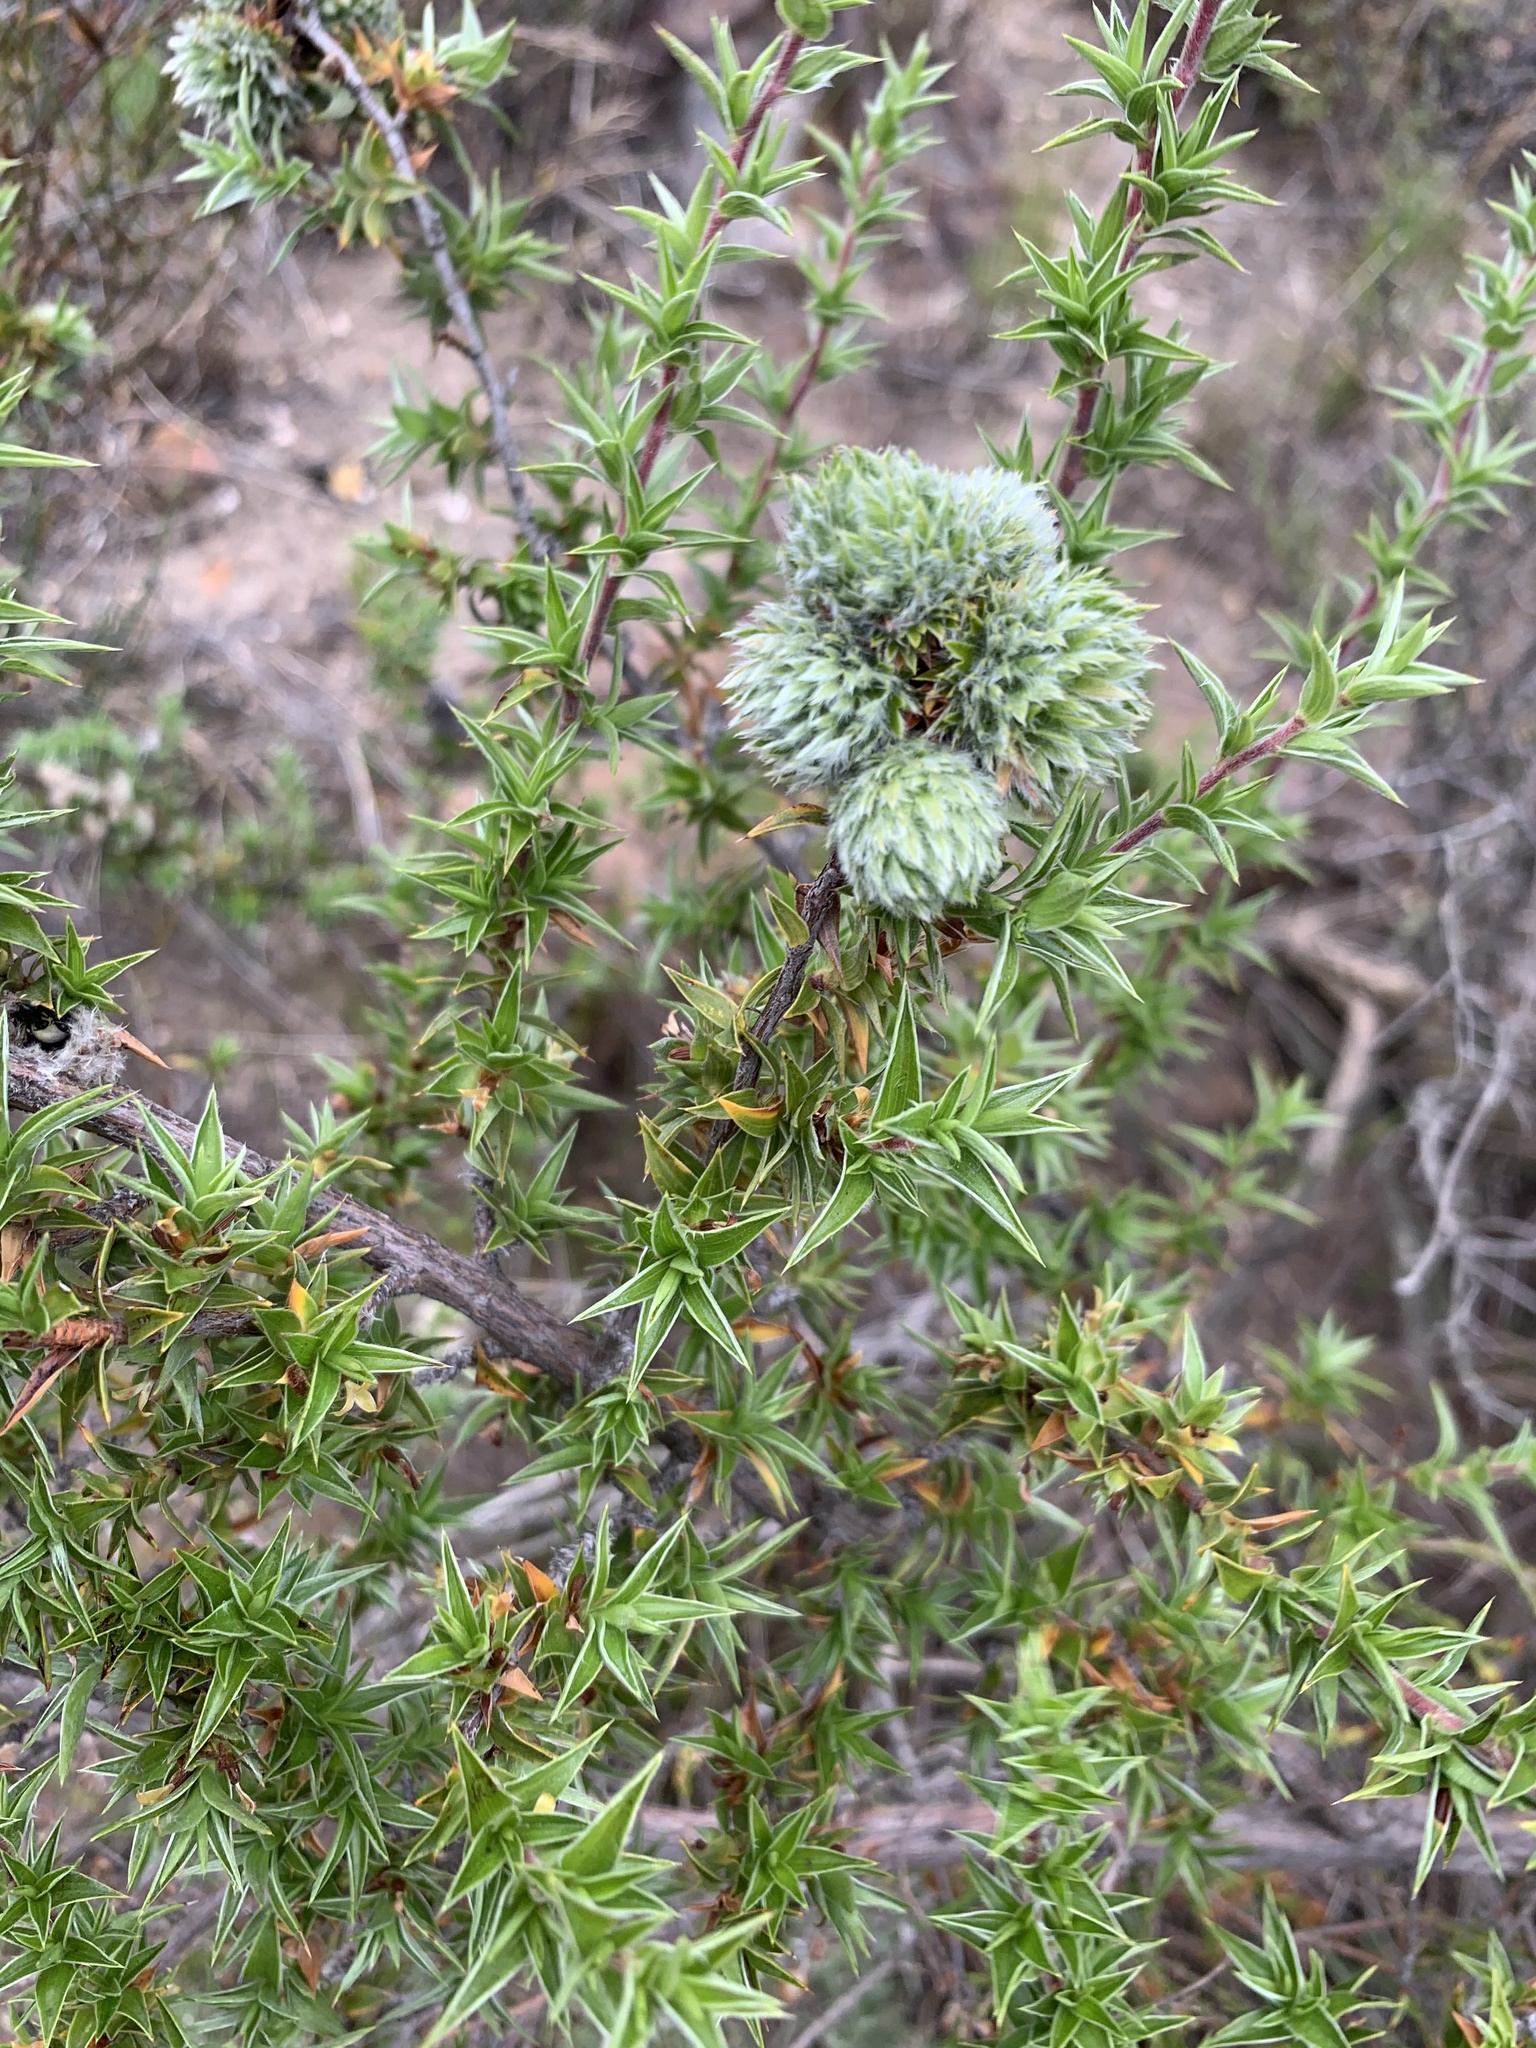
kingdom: Plantae
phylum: Tracheophyta
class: Magnoliopsida
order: Rosales
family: Rosaceae
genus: Cliffortia
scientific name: Cliffortia ruscifolia
